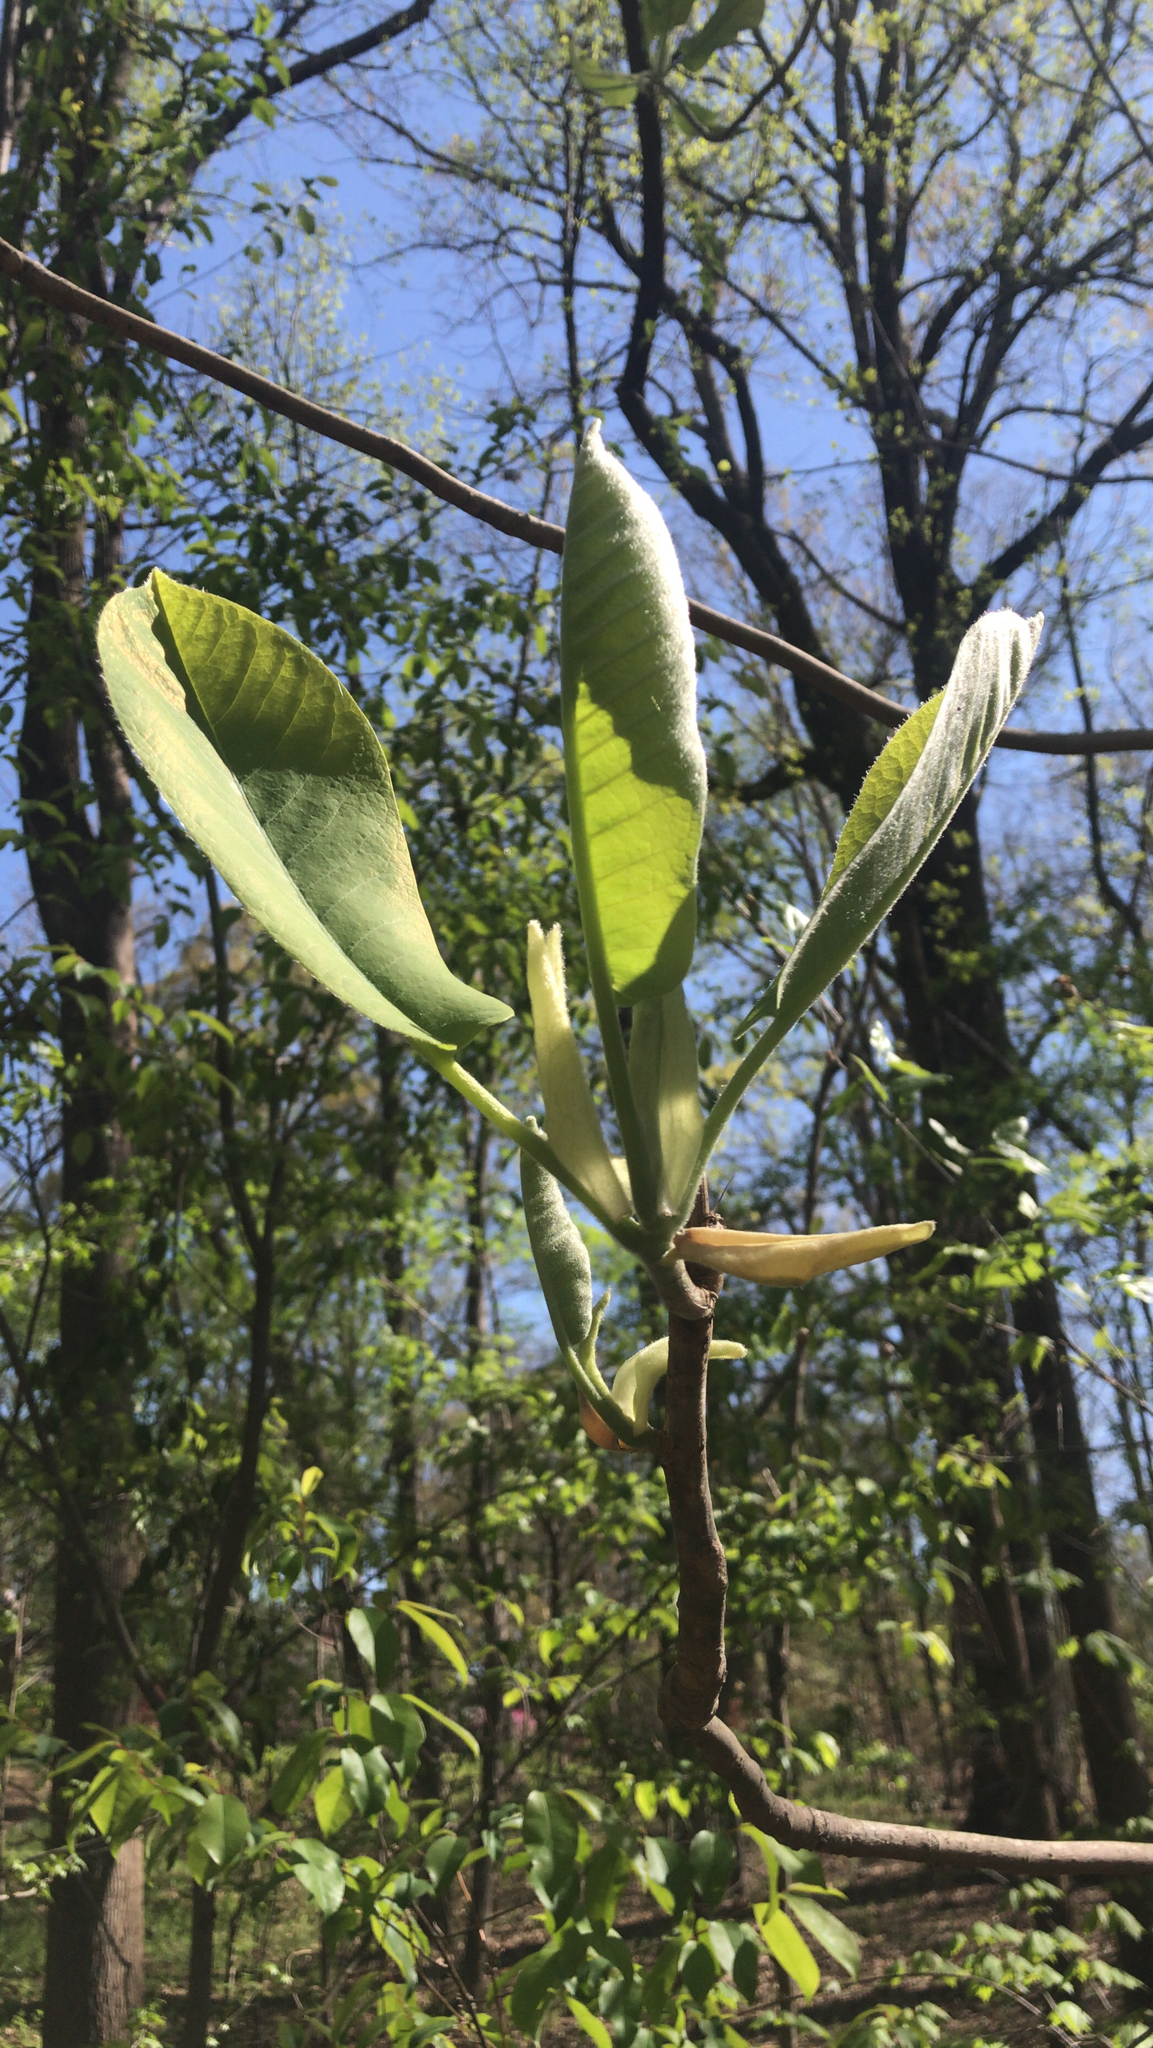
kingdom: Plantae
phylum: Tracheophyta
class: Magnoliopsida
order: Magnoliales
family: Magnoliaceae
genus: Magnolia
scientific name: Magnolia macrophylla
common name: Big-leaf magnolia
